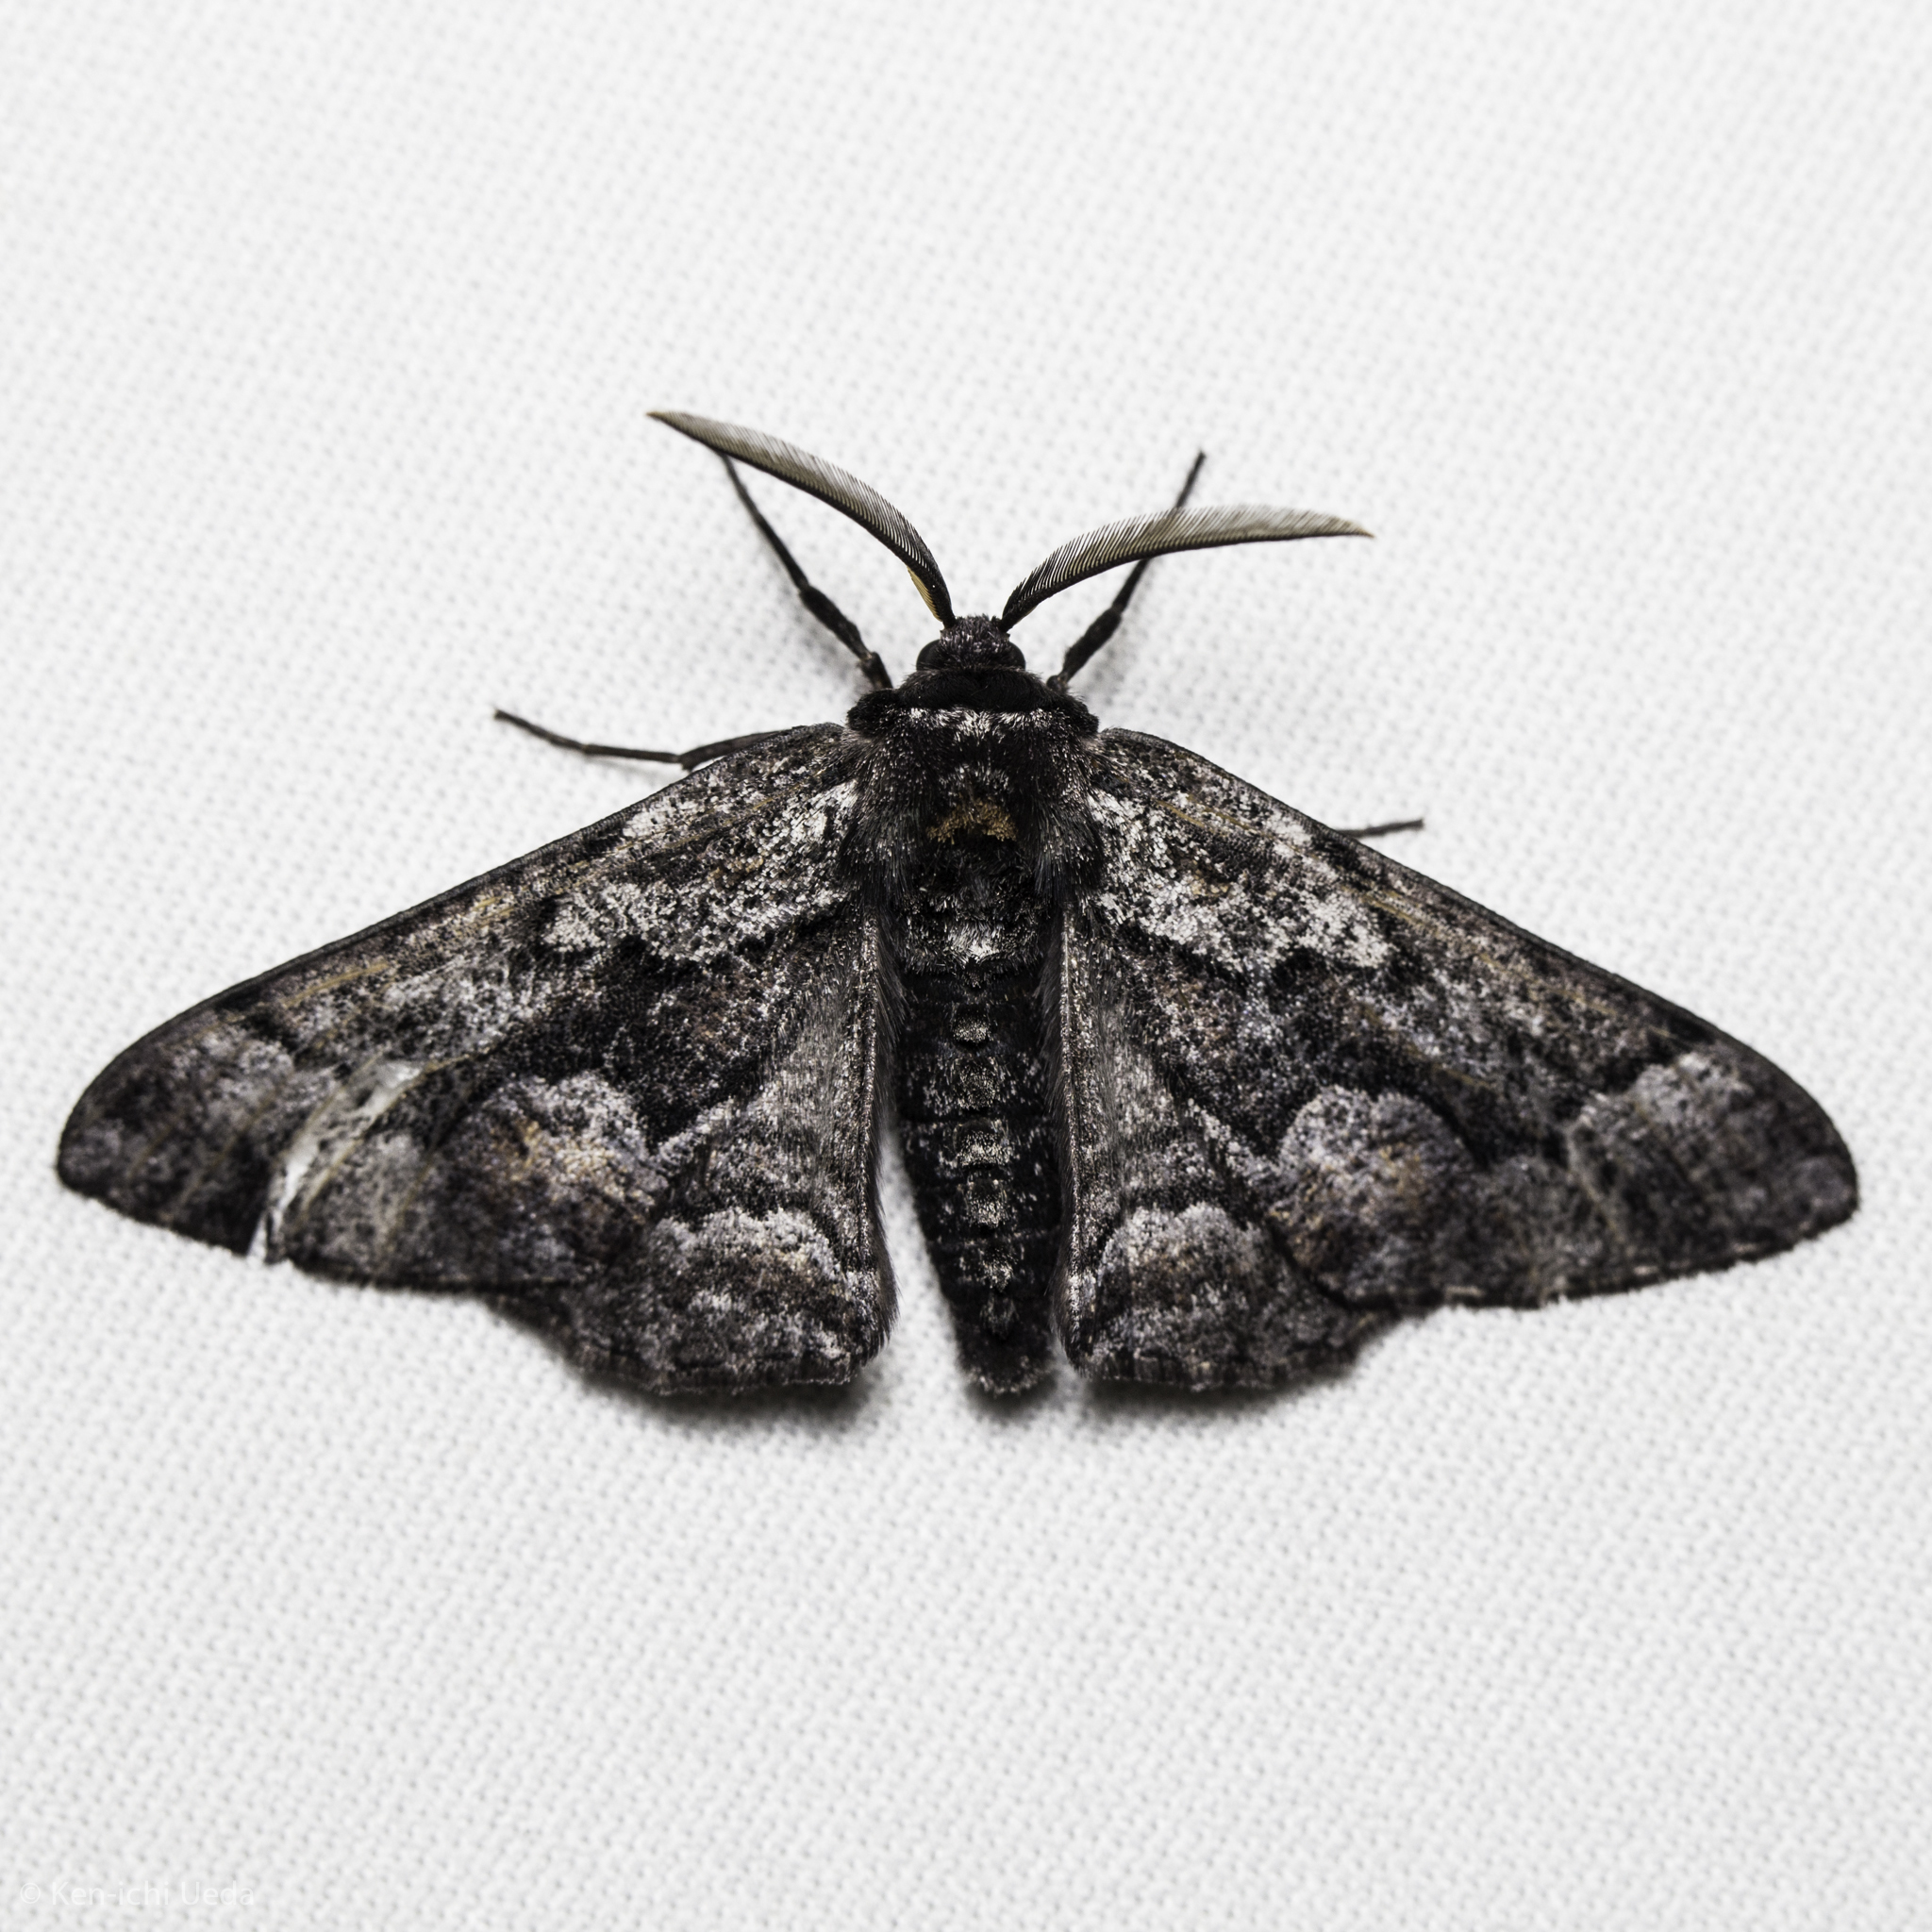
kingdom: Animalia
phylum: Arthropoda
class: Insecta
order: Lepidoptera
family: Geometridae
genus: Phaeoura
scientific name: Phaeoura mexicanaria
